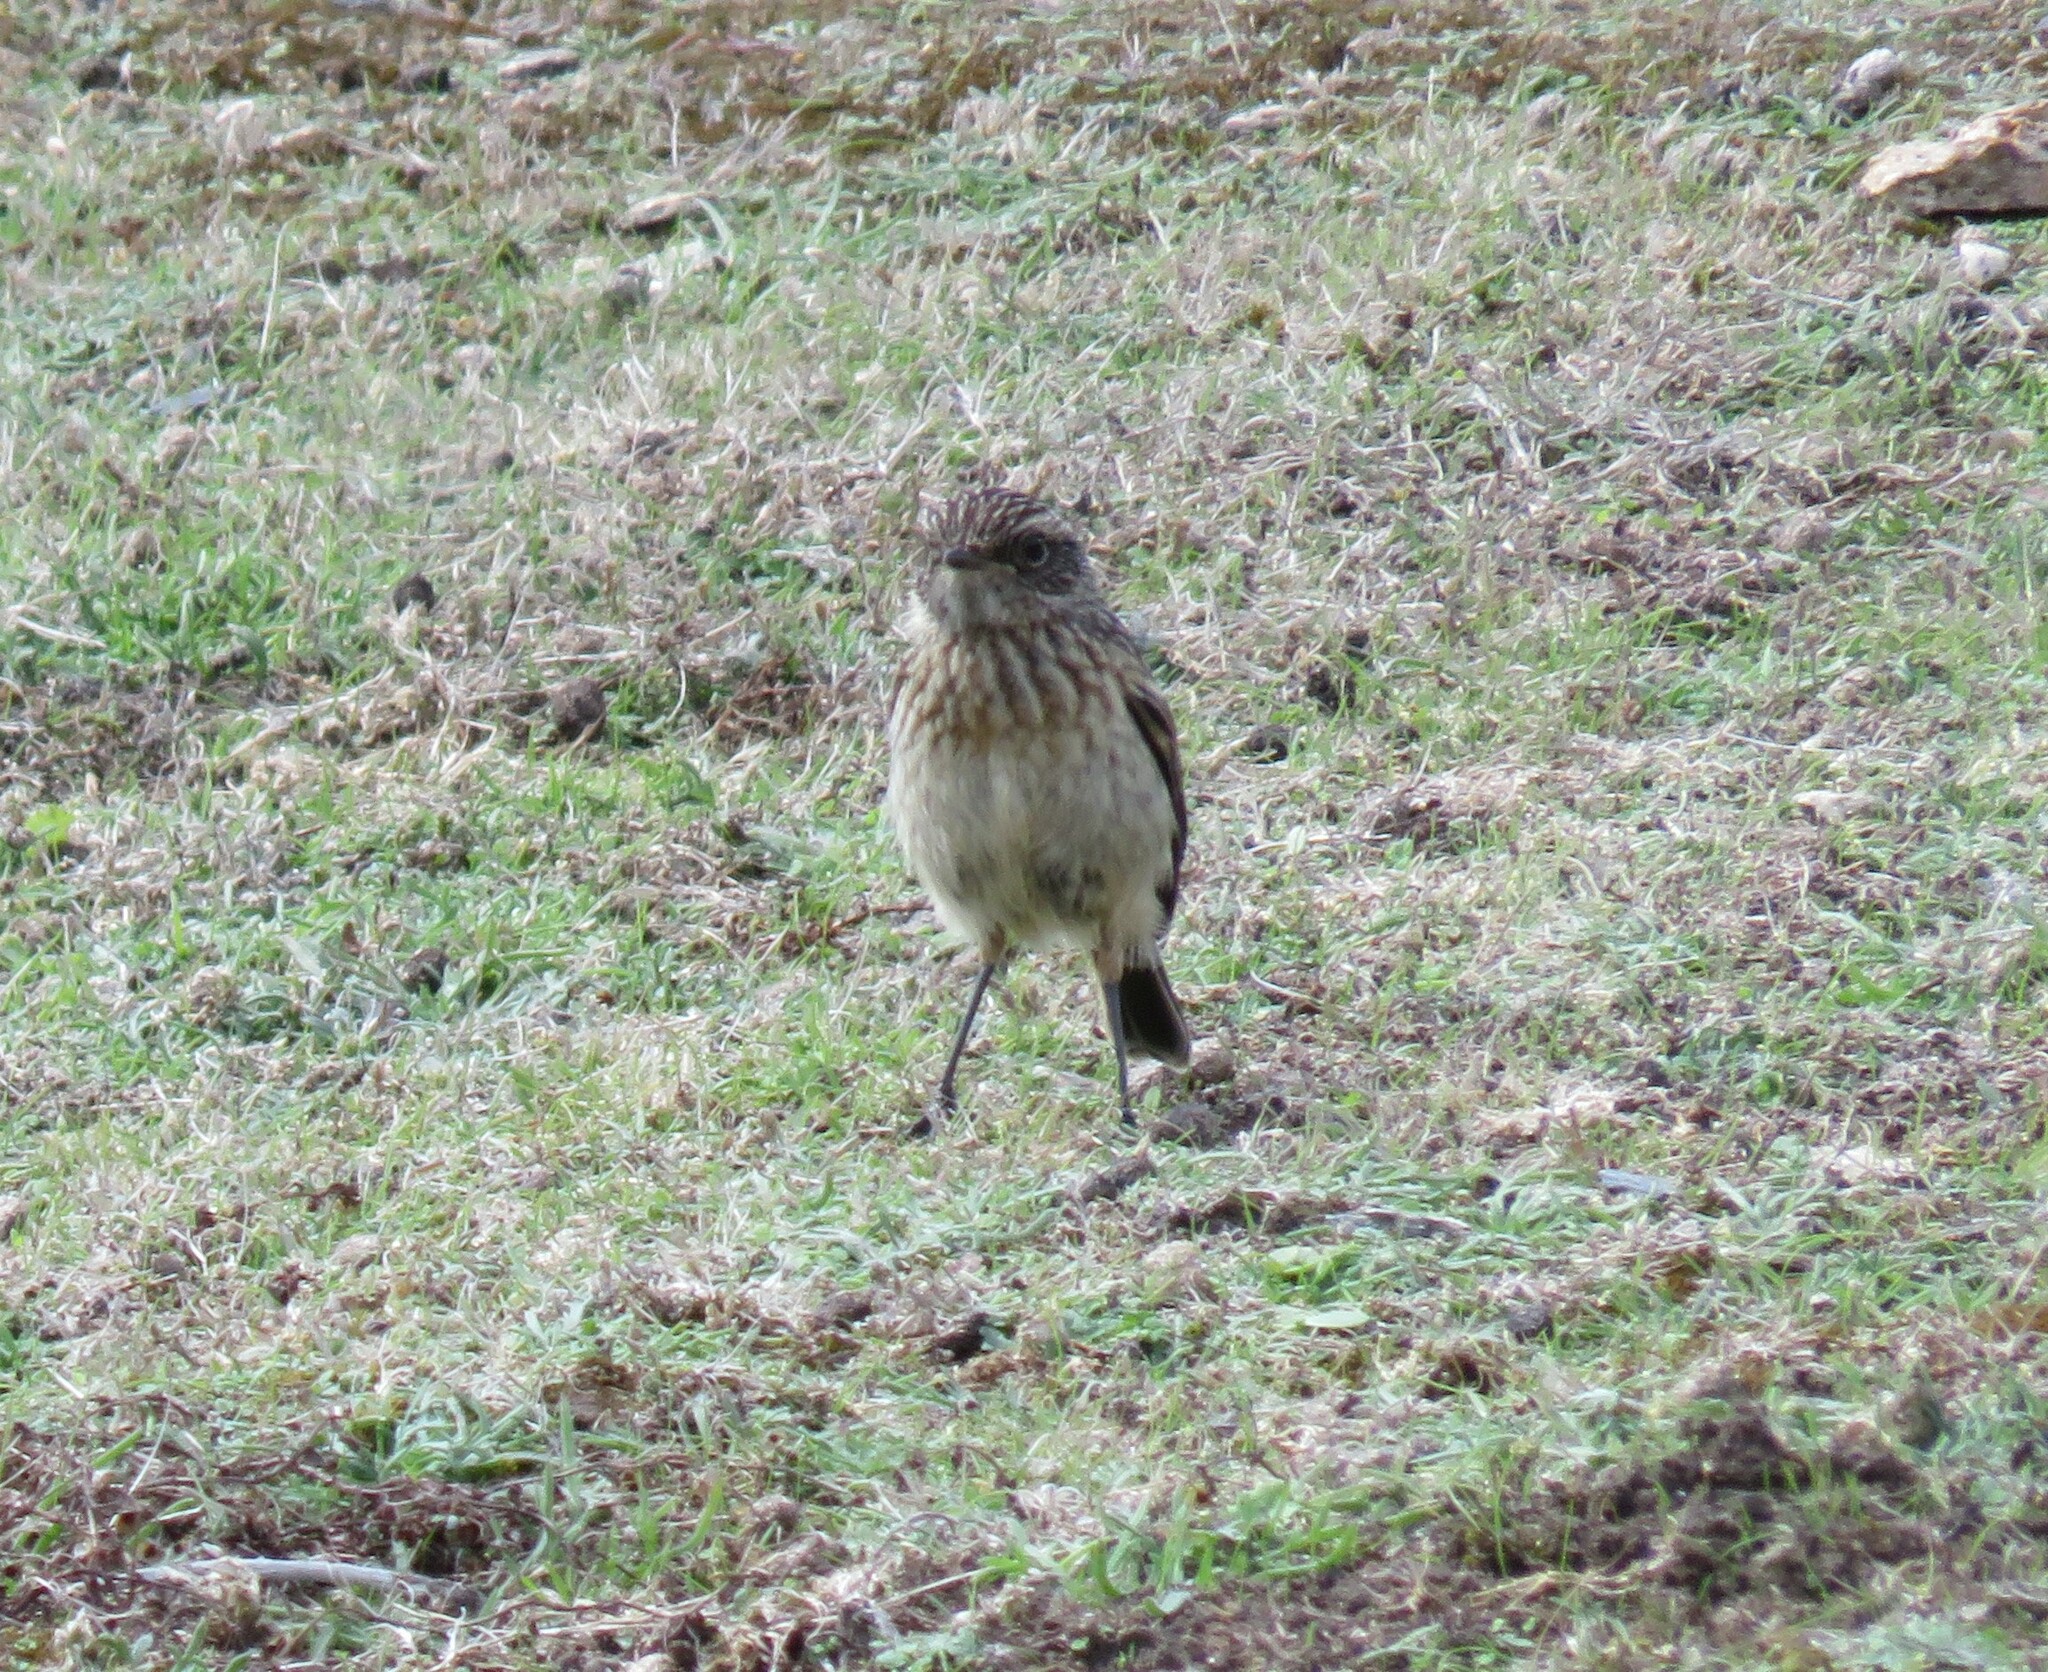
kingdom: Animalia
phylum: Chordata
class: Aves
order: Passeriformes
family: Muscicapidae
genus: Saxicola
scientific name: Saxicola rubicola
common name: European stonechat
